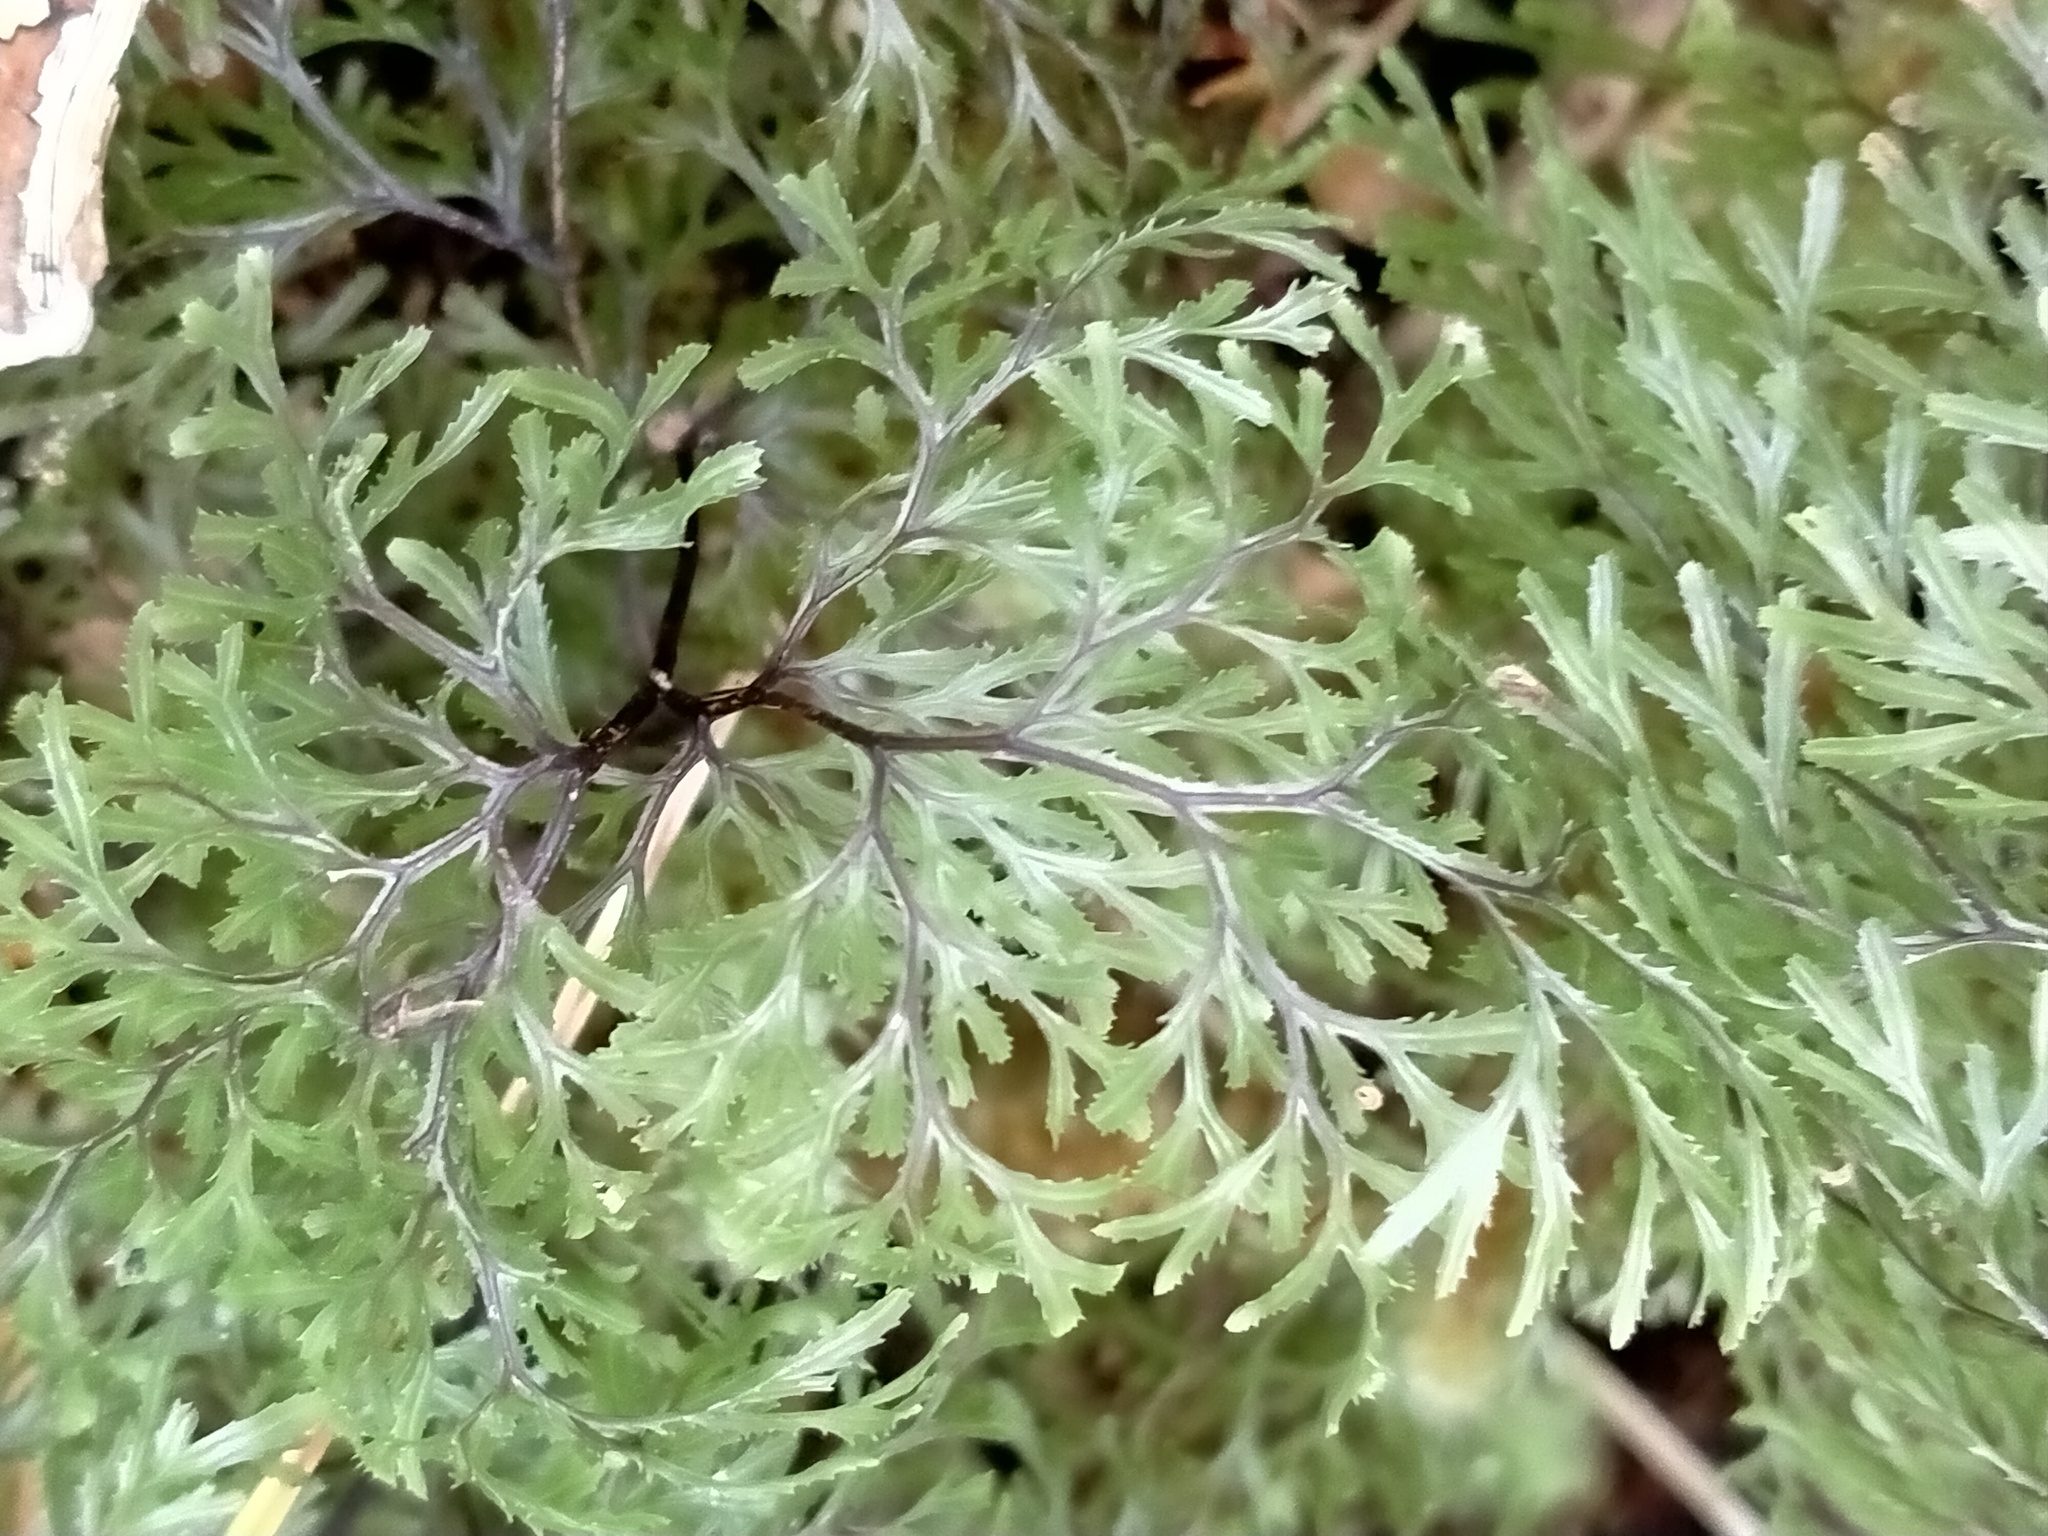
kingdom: Plantae
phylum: Tracheophyta
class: Polypodiopsida
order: Hymenophyllales
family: Hymenophyllaceae
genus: Hymenophyllum
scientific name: Hymenophyllum multifidum
